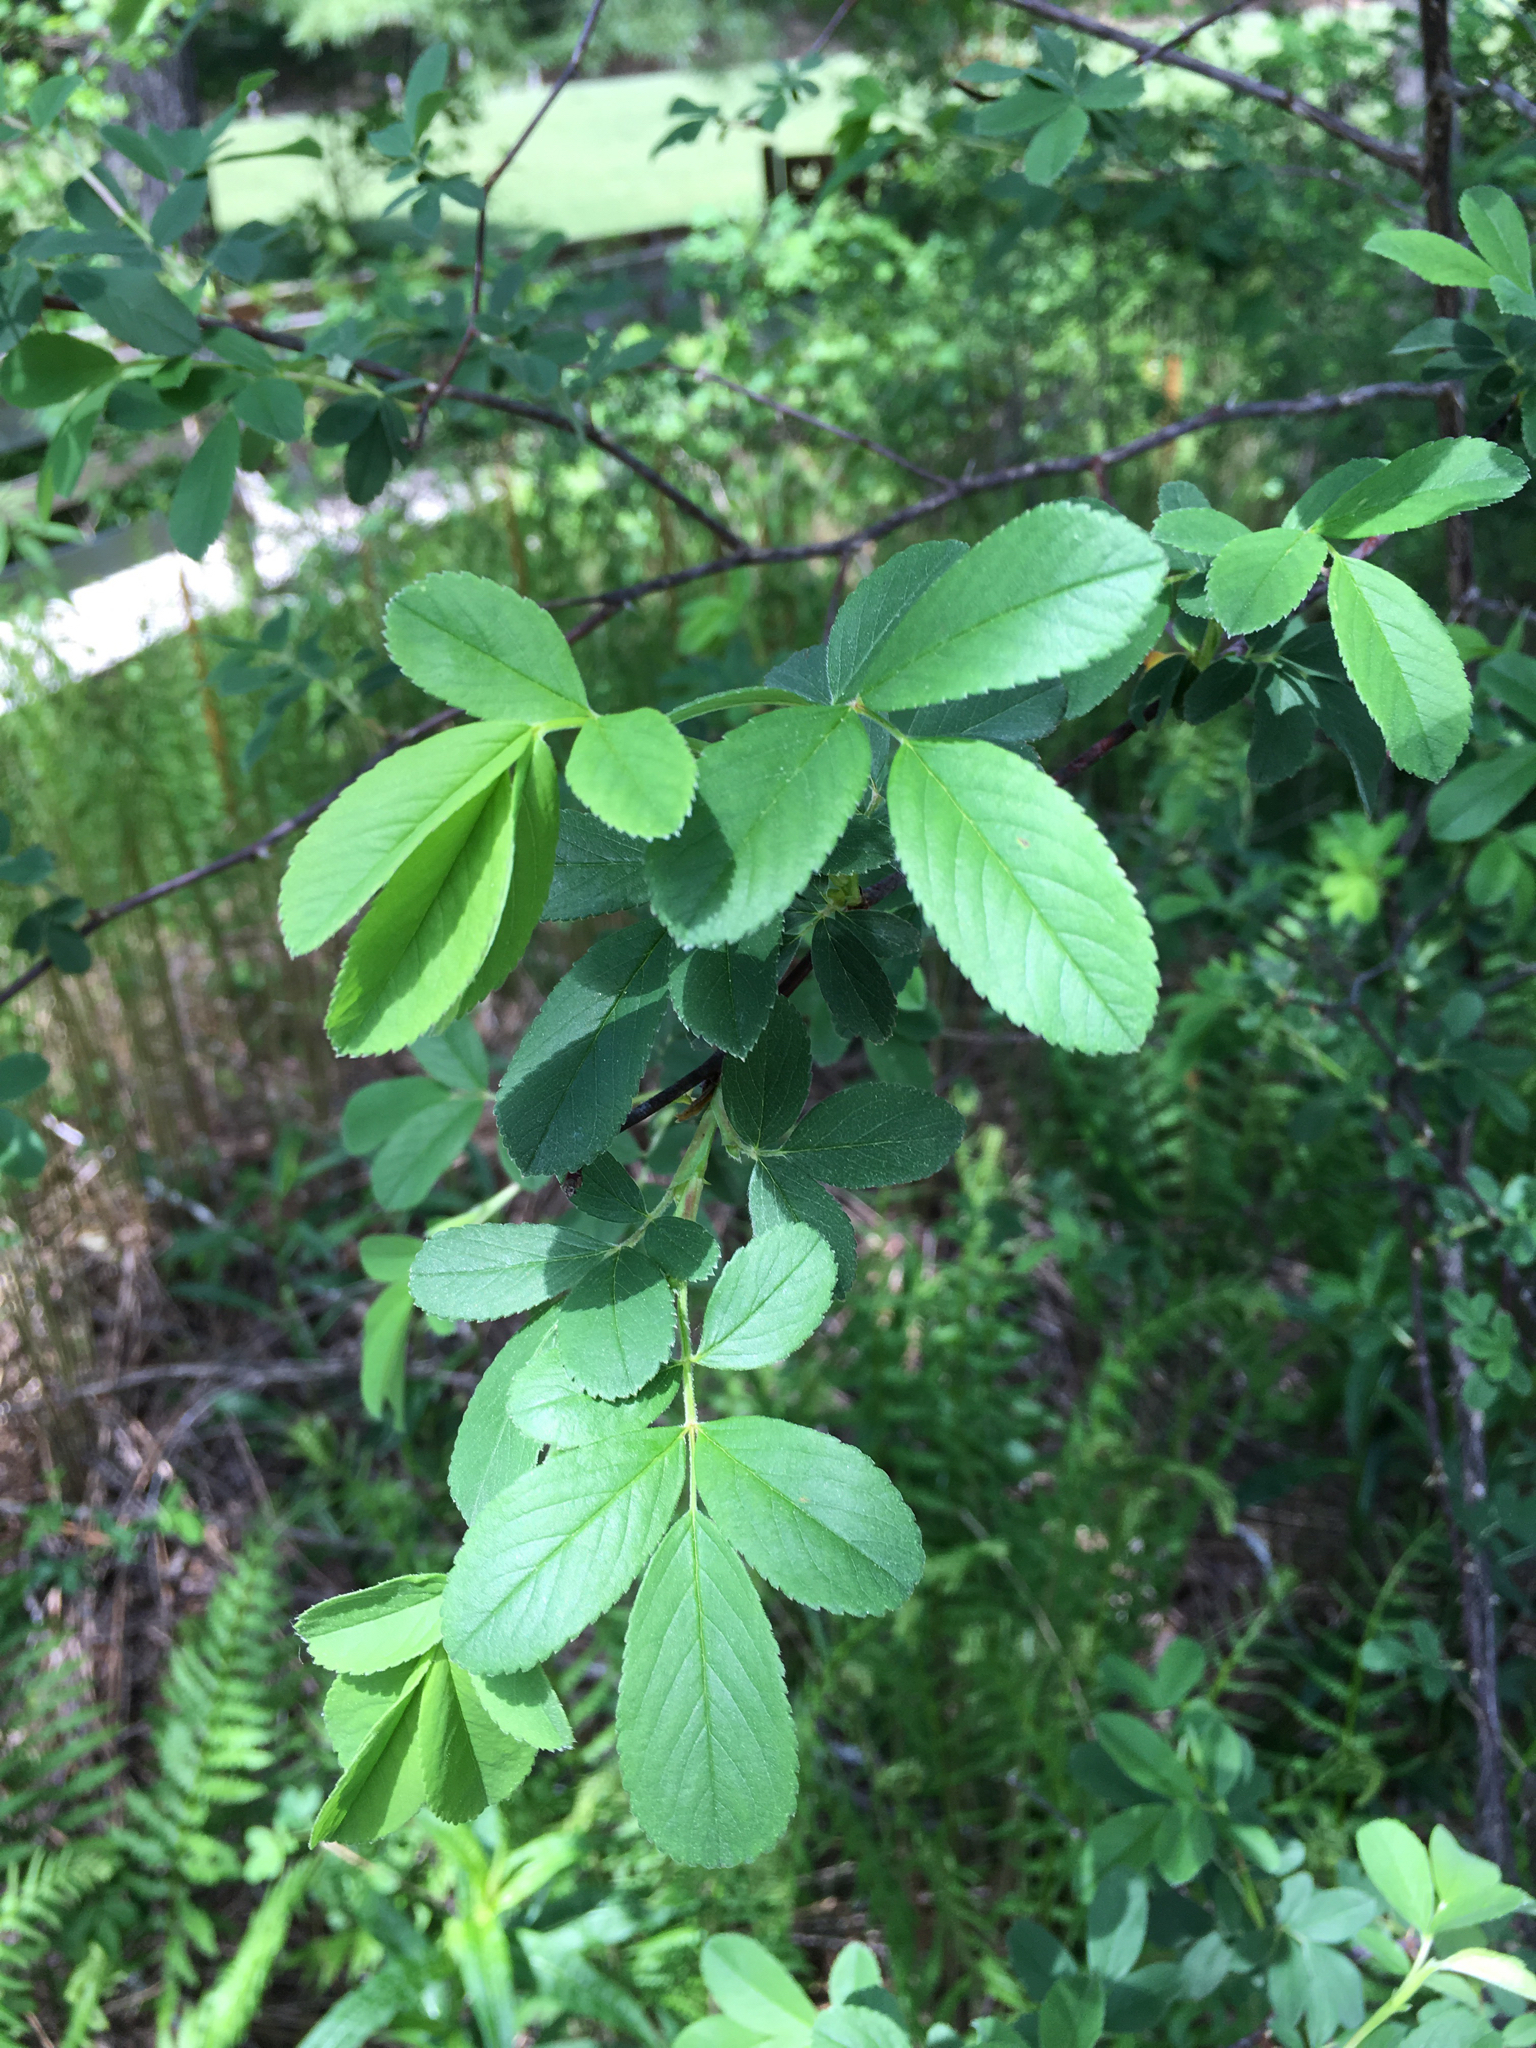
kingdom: Plantae
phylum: Tracheophyta
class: Magnoliopsida
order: Rosales
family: Rosaceae
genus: Rosa
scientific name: Rosa palustris
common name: Swamp rose
